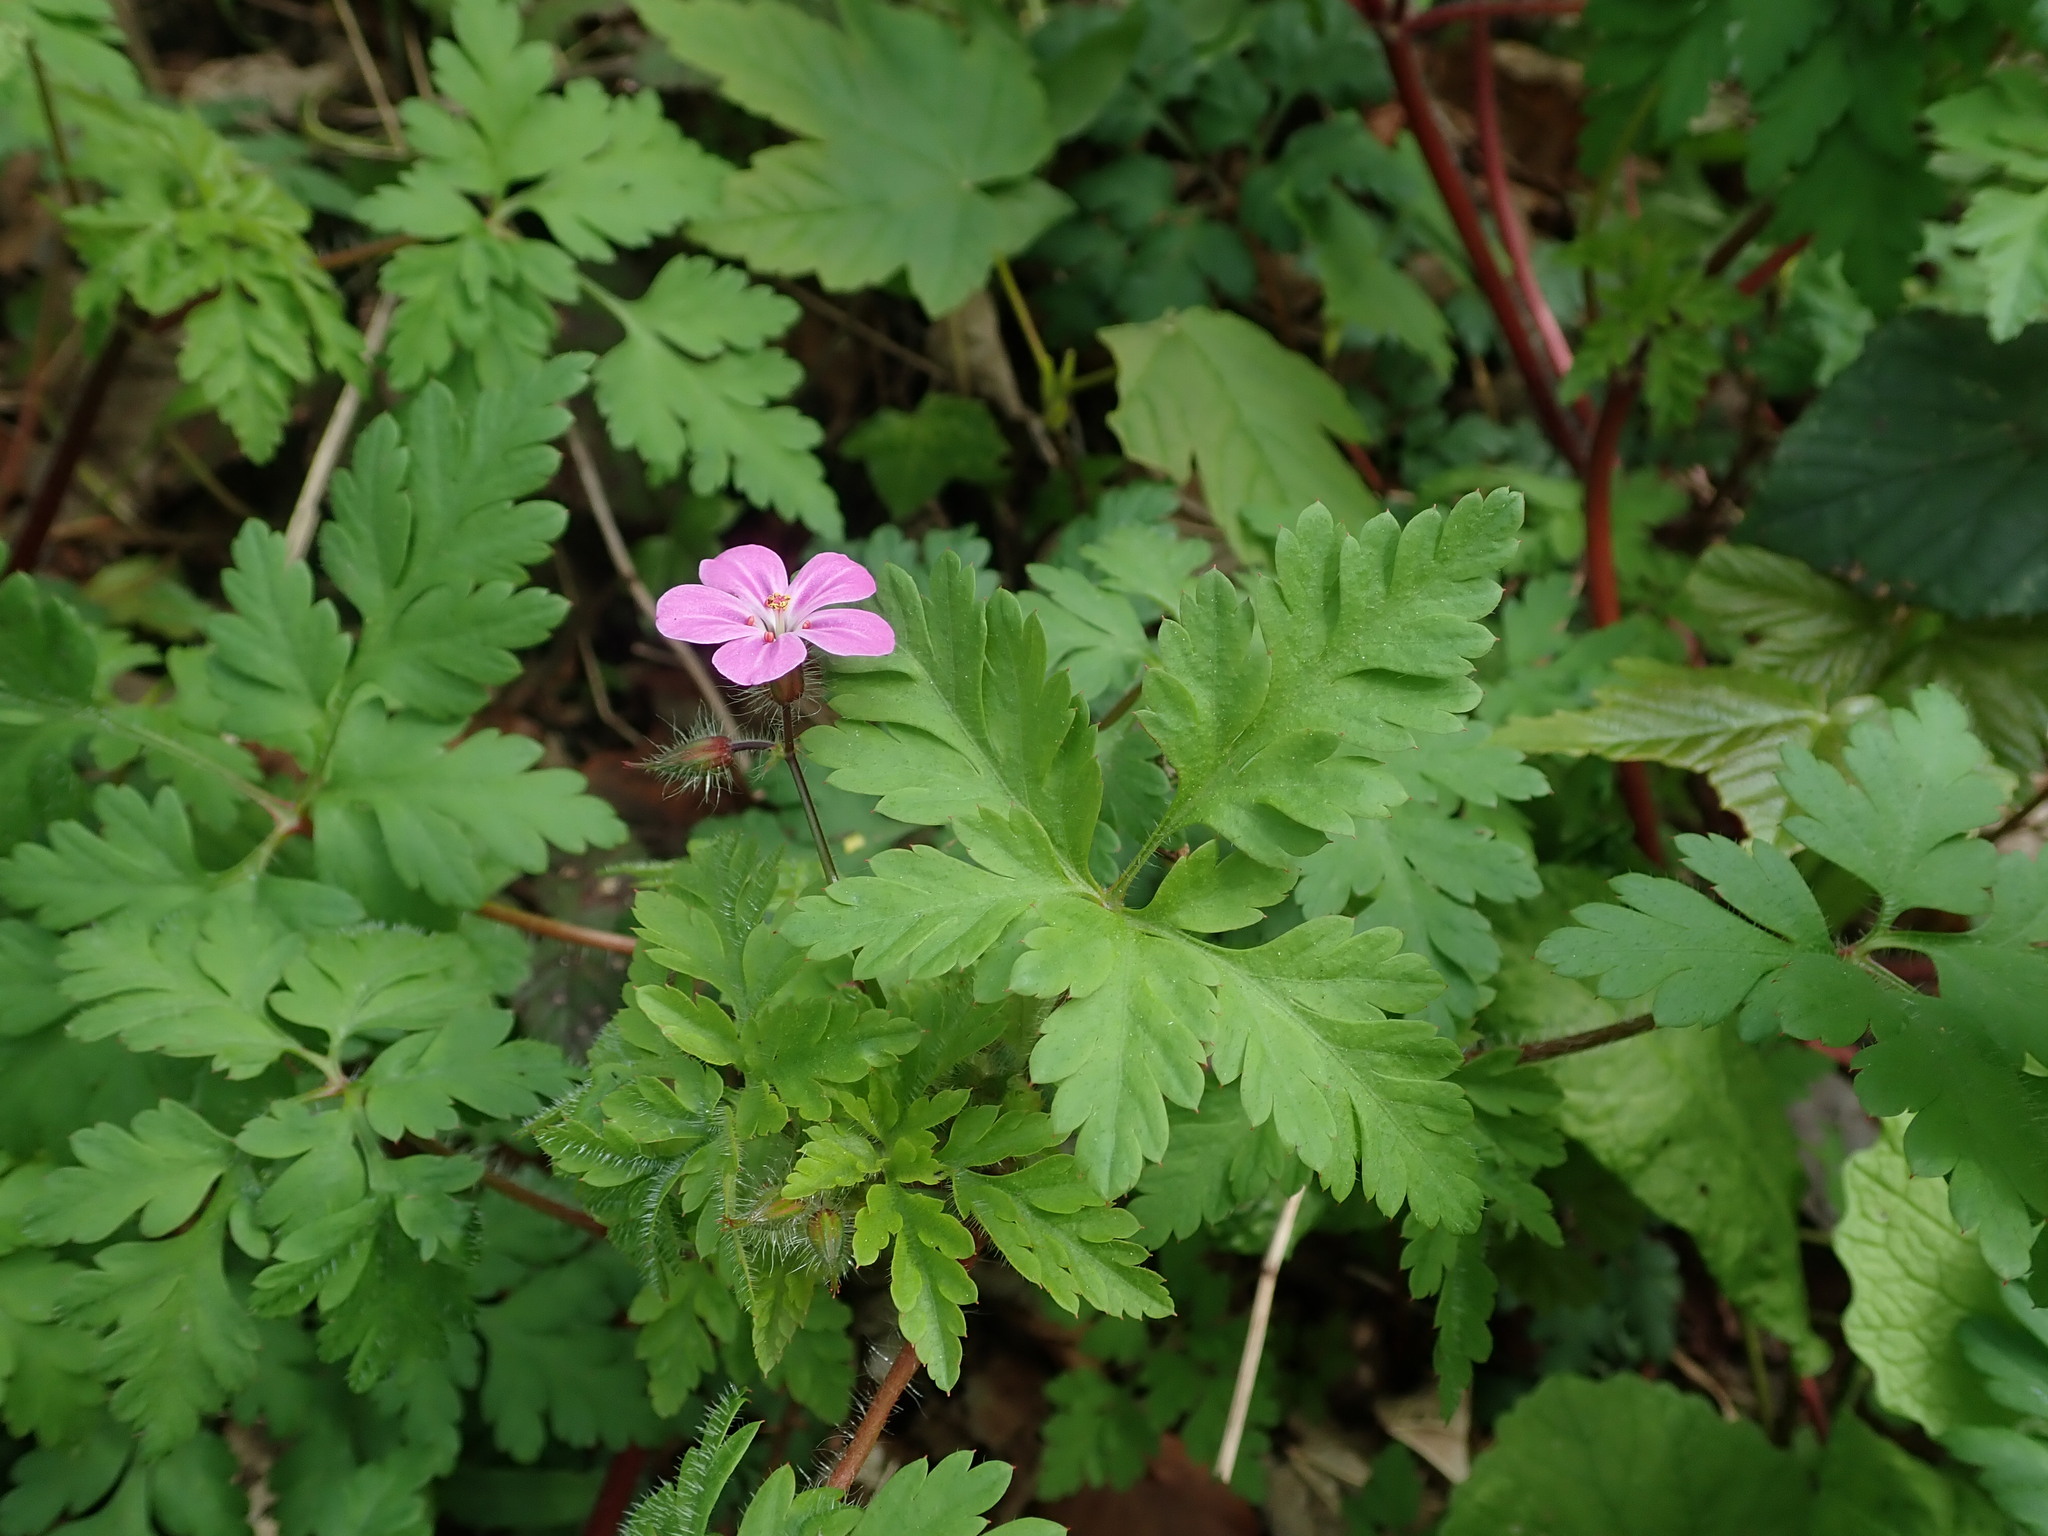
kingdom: Plantae
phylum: Tracheophyta
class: Magnoliopsida
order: Geraniales
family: Geraniaceae
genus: Geranium
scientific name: Geranium robertianum
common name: Herb-robert
